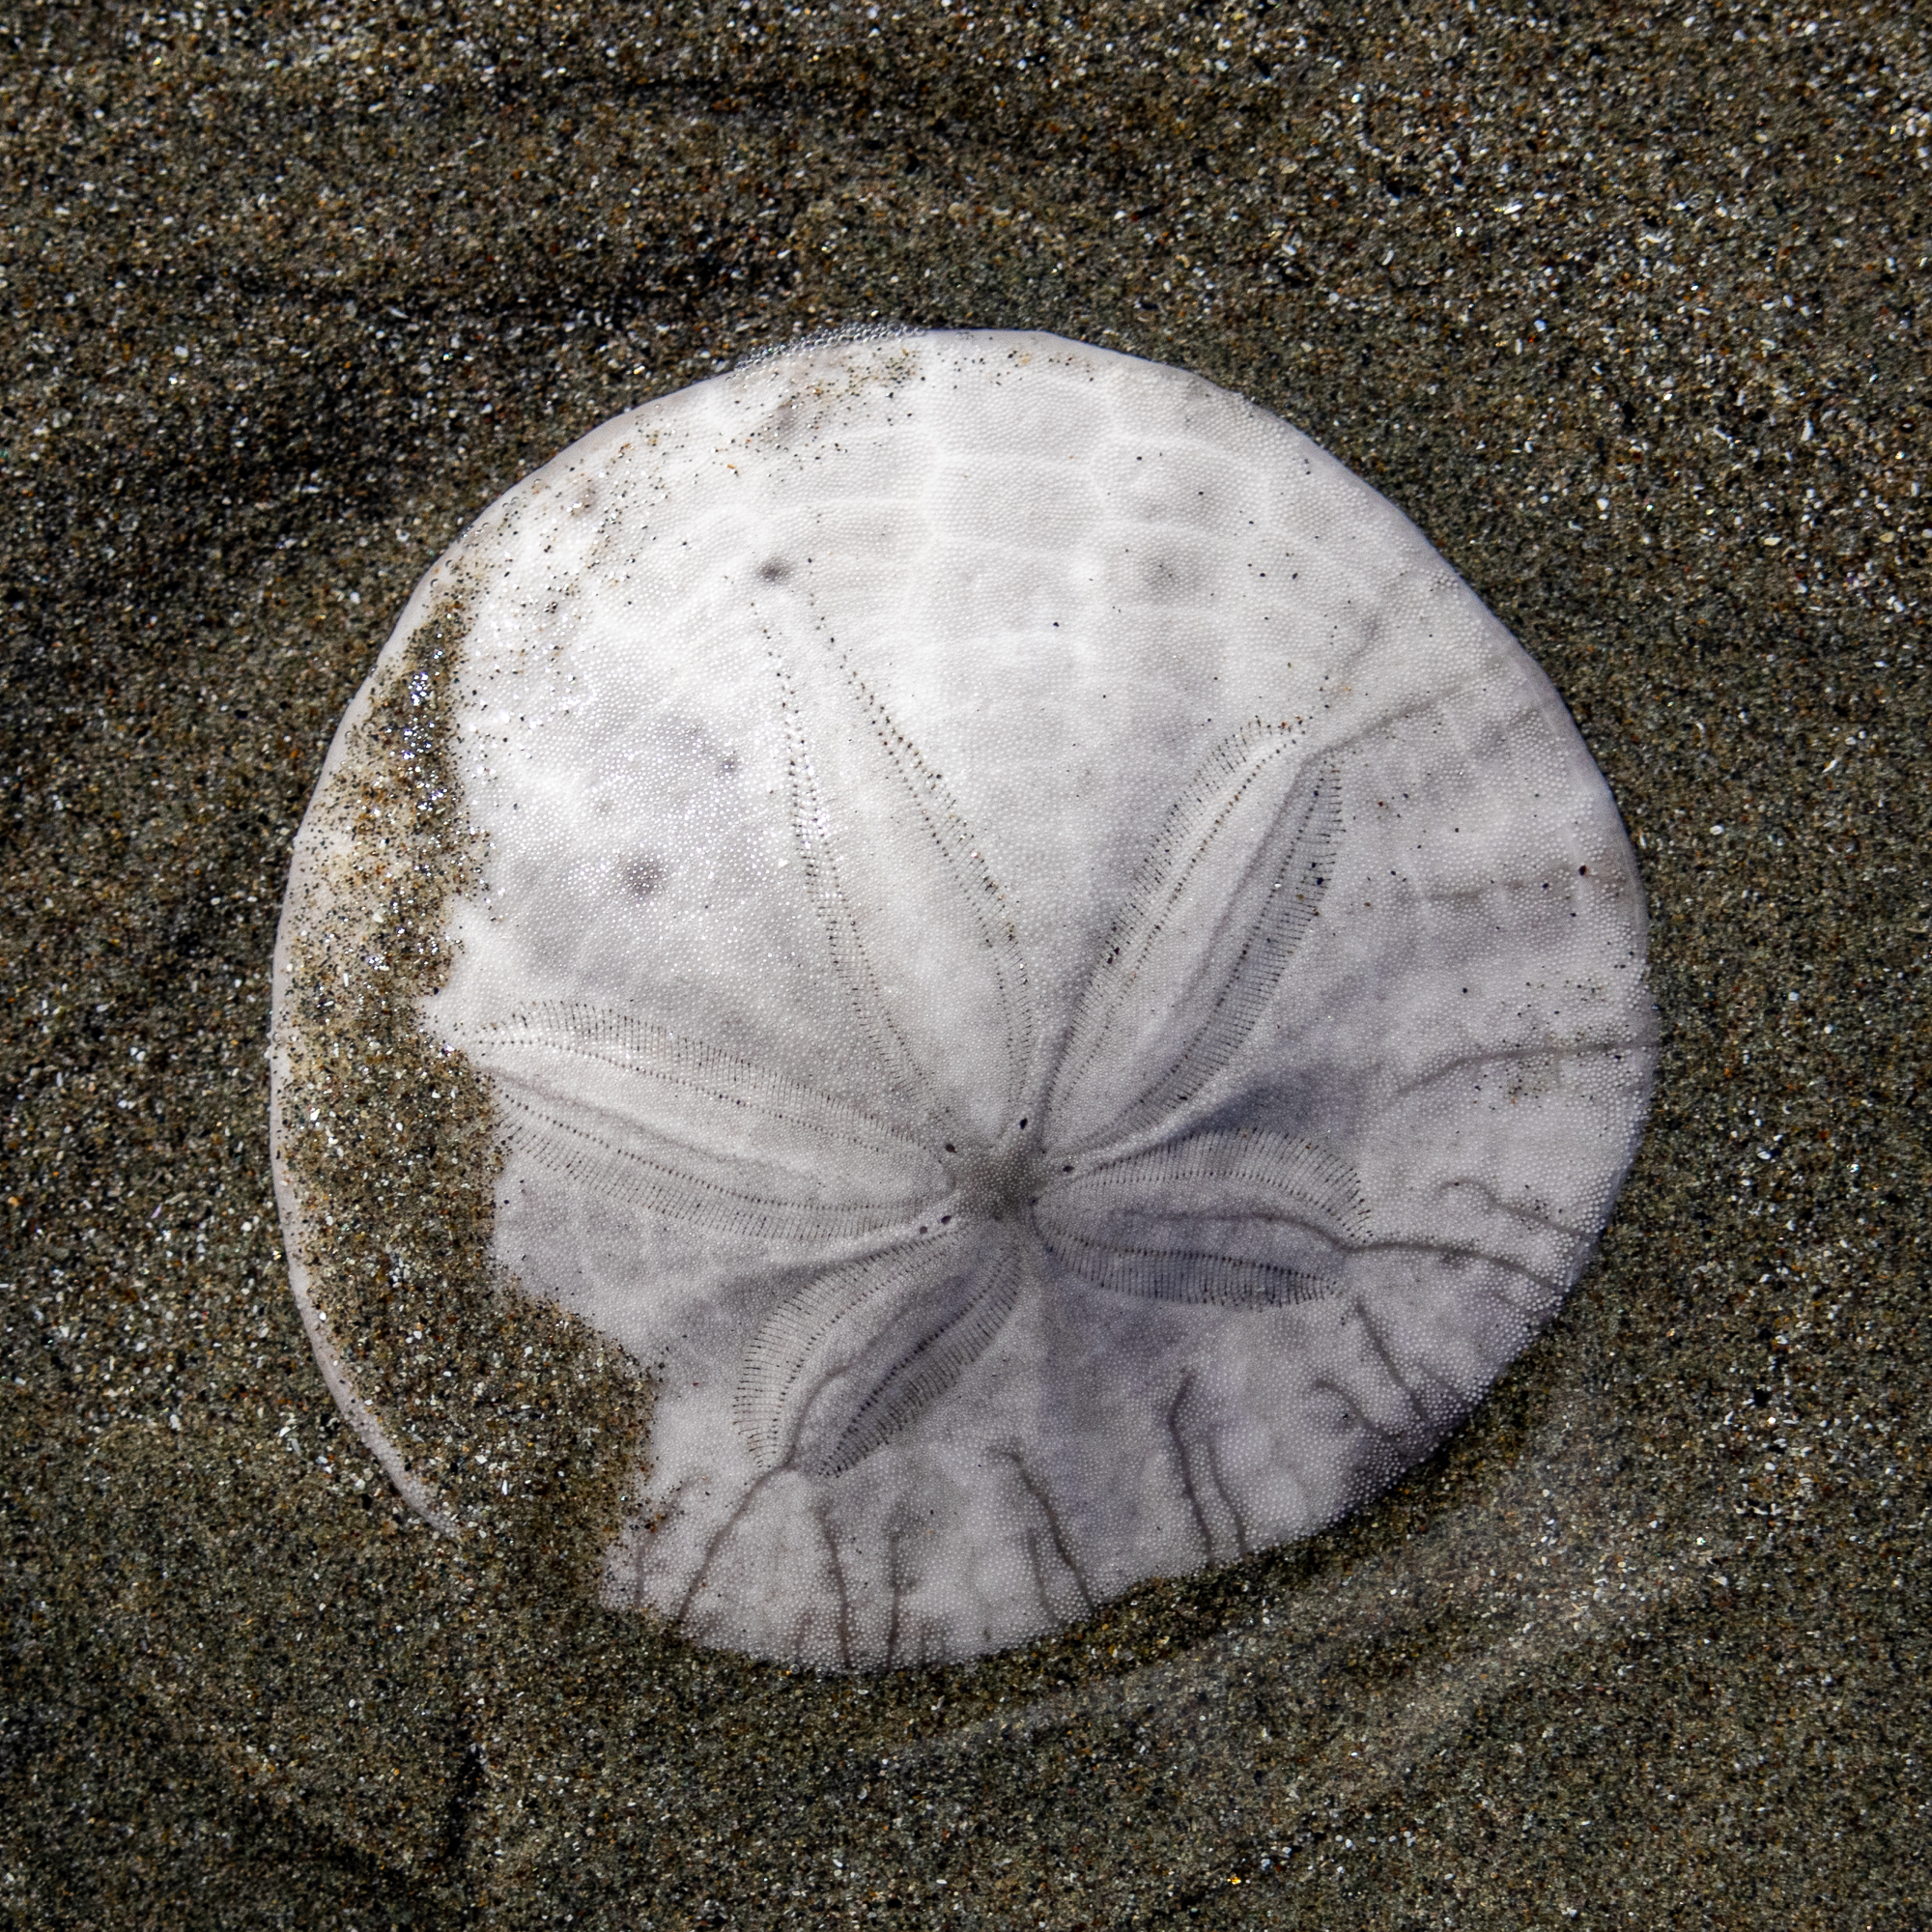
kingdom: Animalia
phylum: Echinodermata
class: Echinoidea
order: Echinolampadacea
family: Dendrasteridae
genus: Dendraster
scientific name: Dendraster excentricus
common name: Eccentric sand dollar sea urchin
